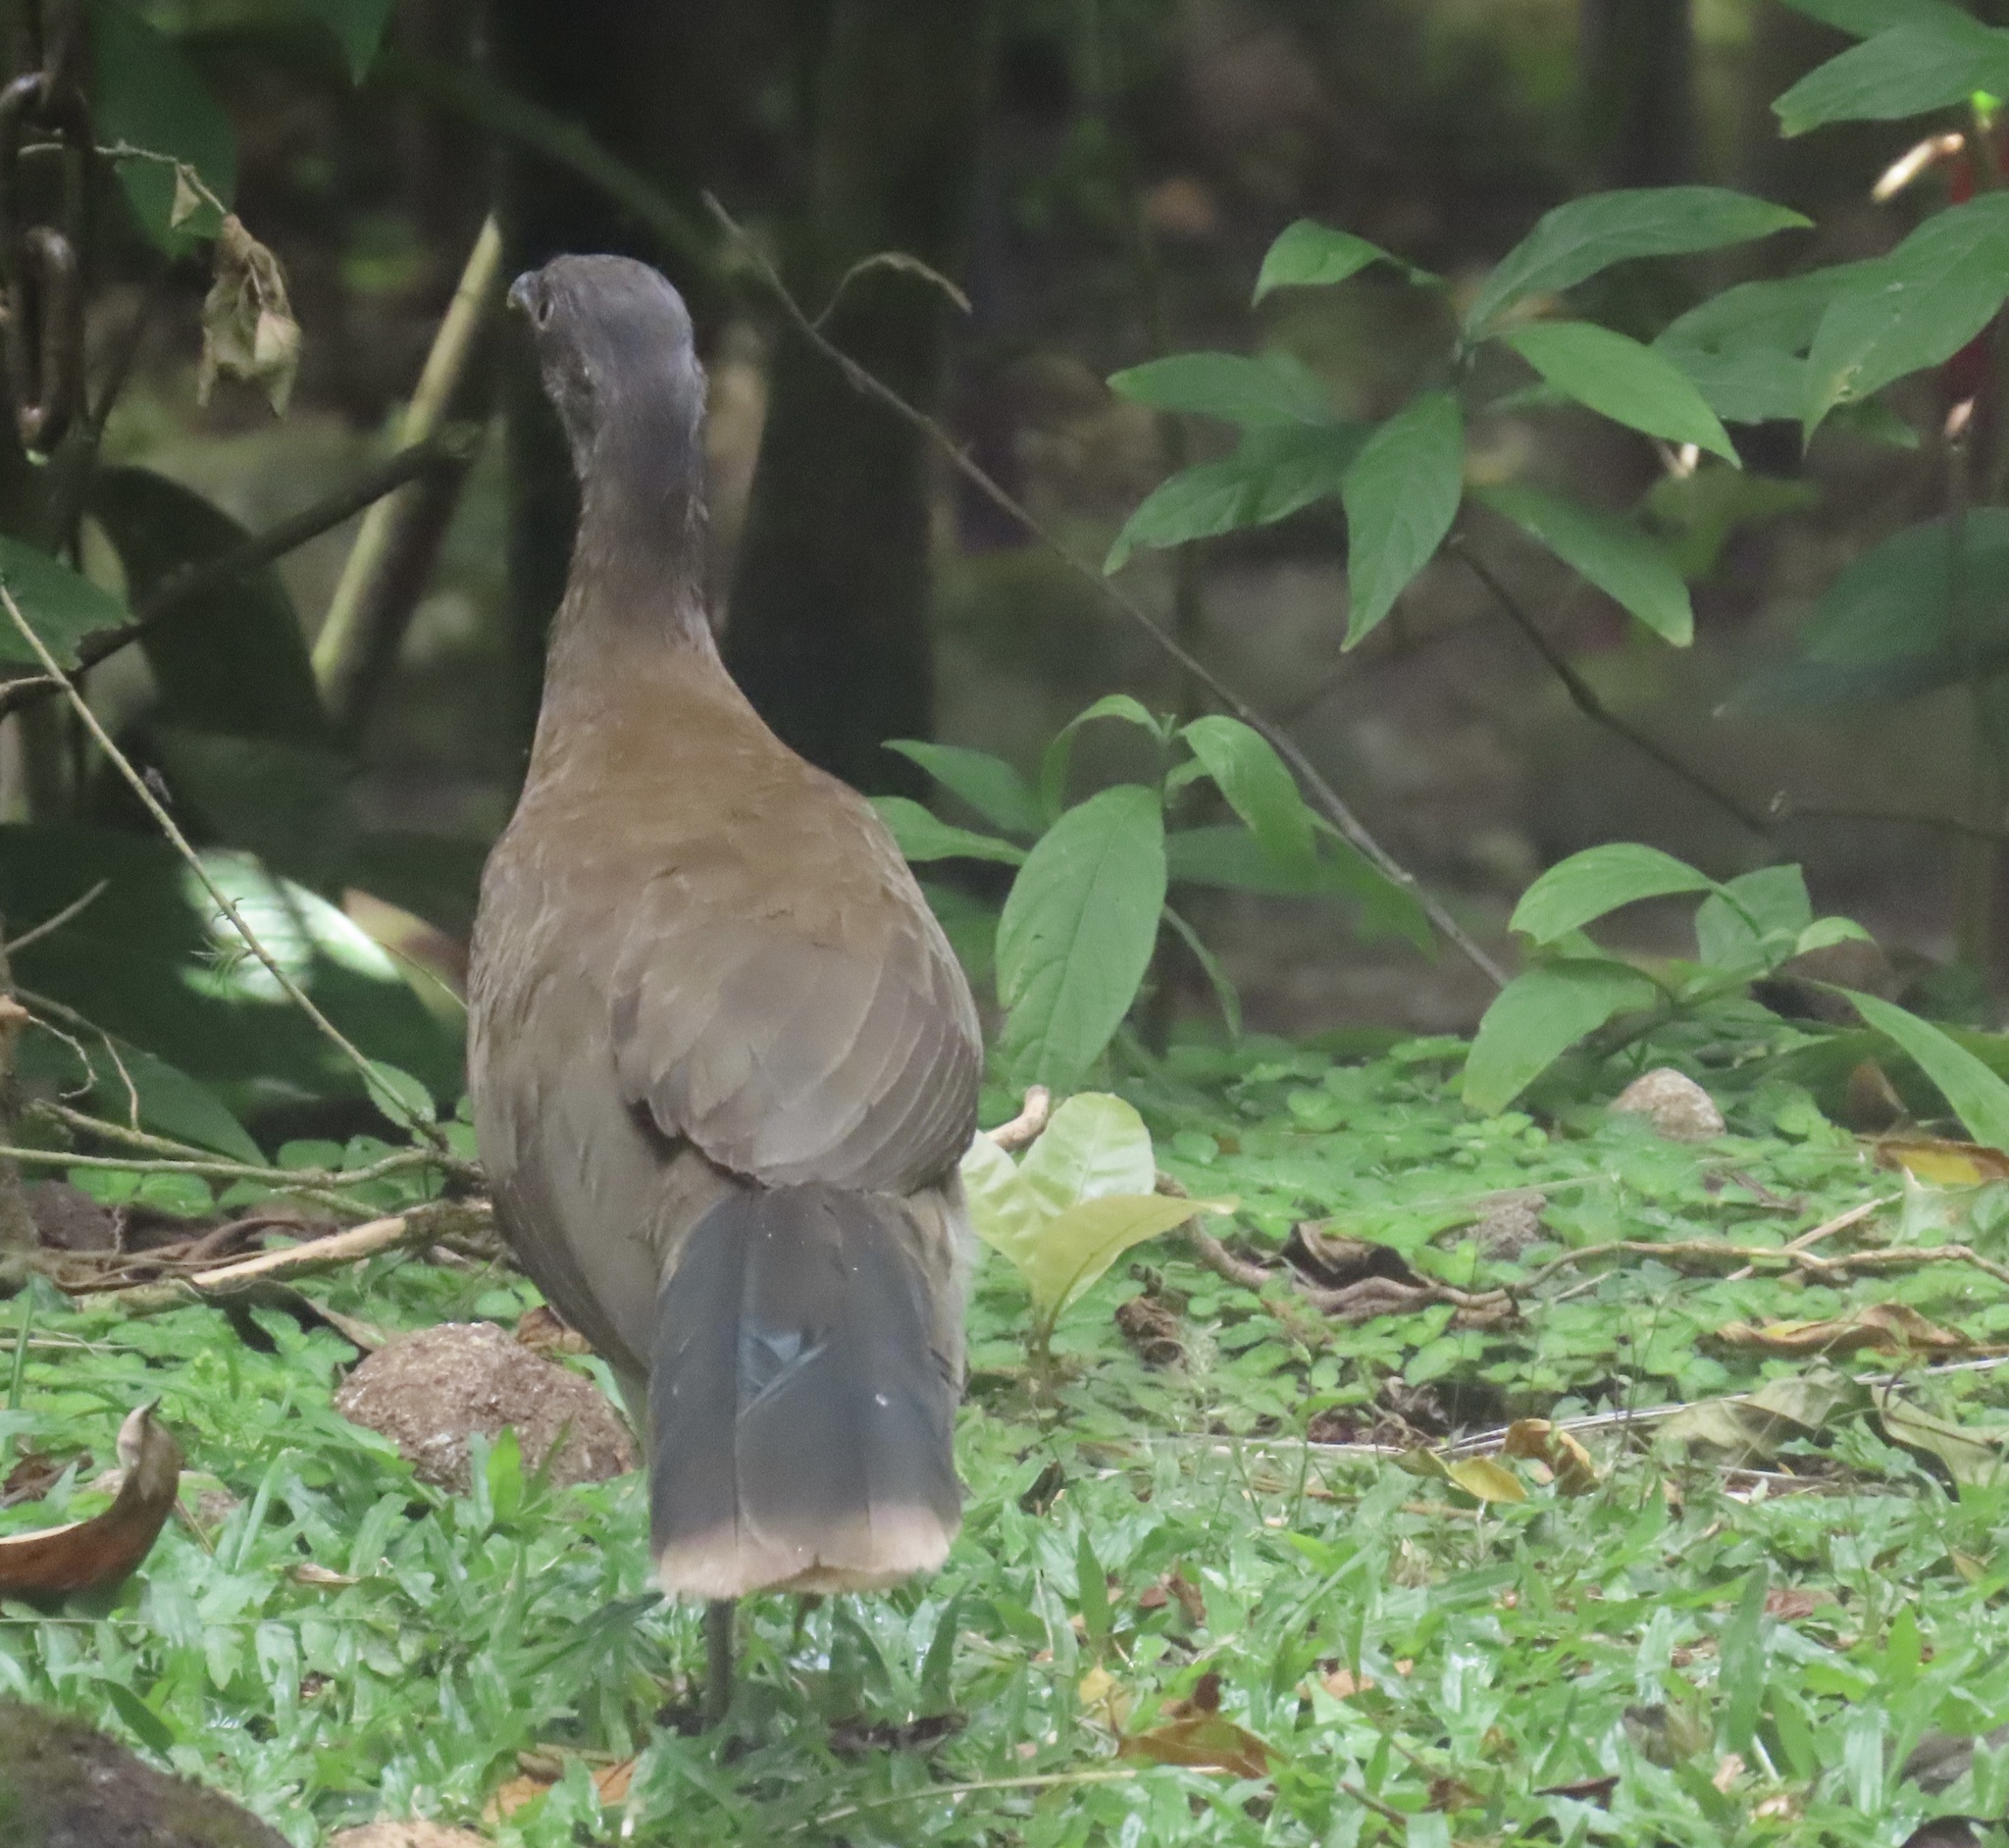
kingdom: Animalia
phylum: Chordata
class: Aves
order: Galliformes
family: Cracidae
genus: Ortalis
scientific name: Ortalis cinereiceps
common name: Grey-headed chachalaca
